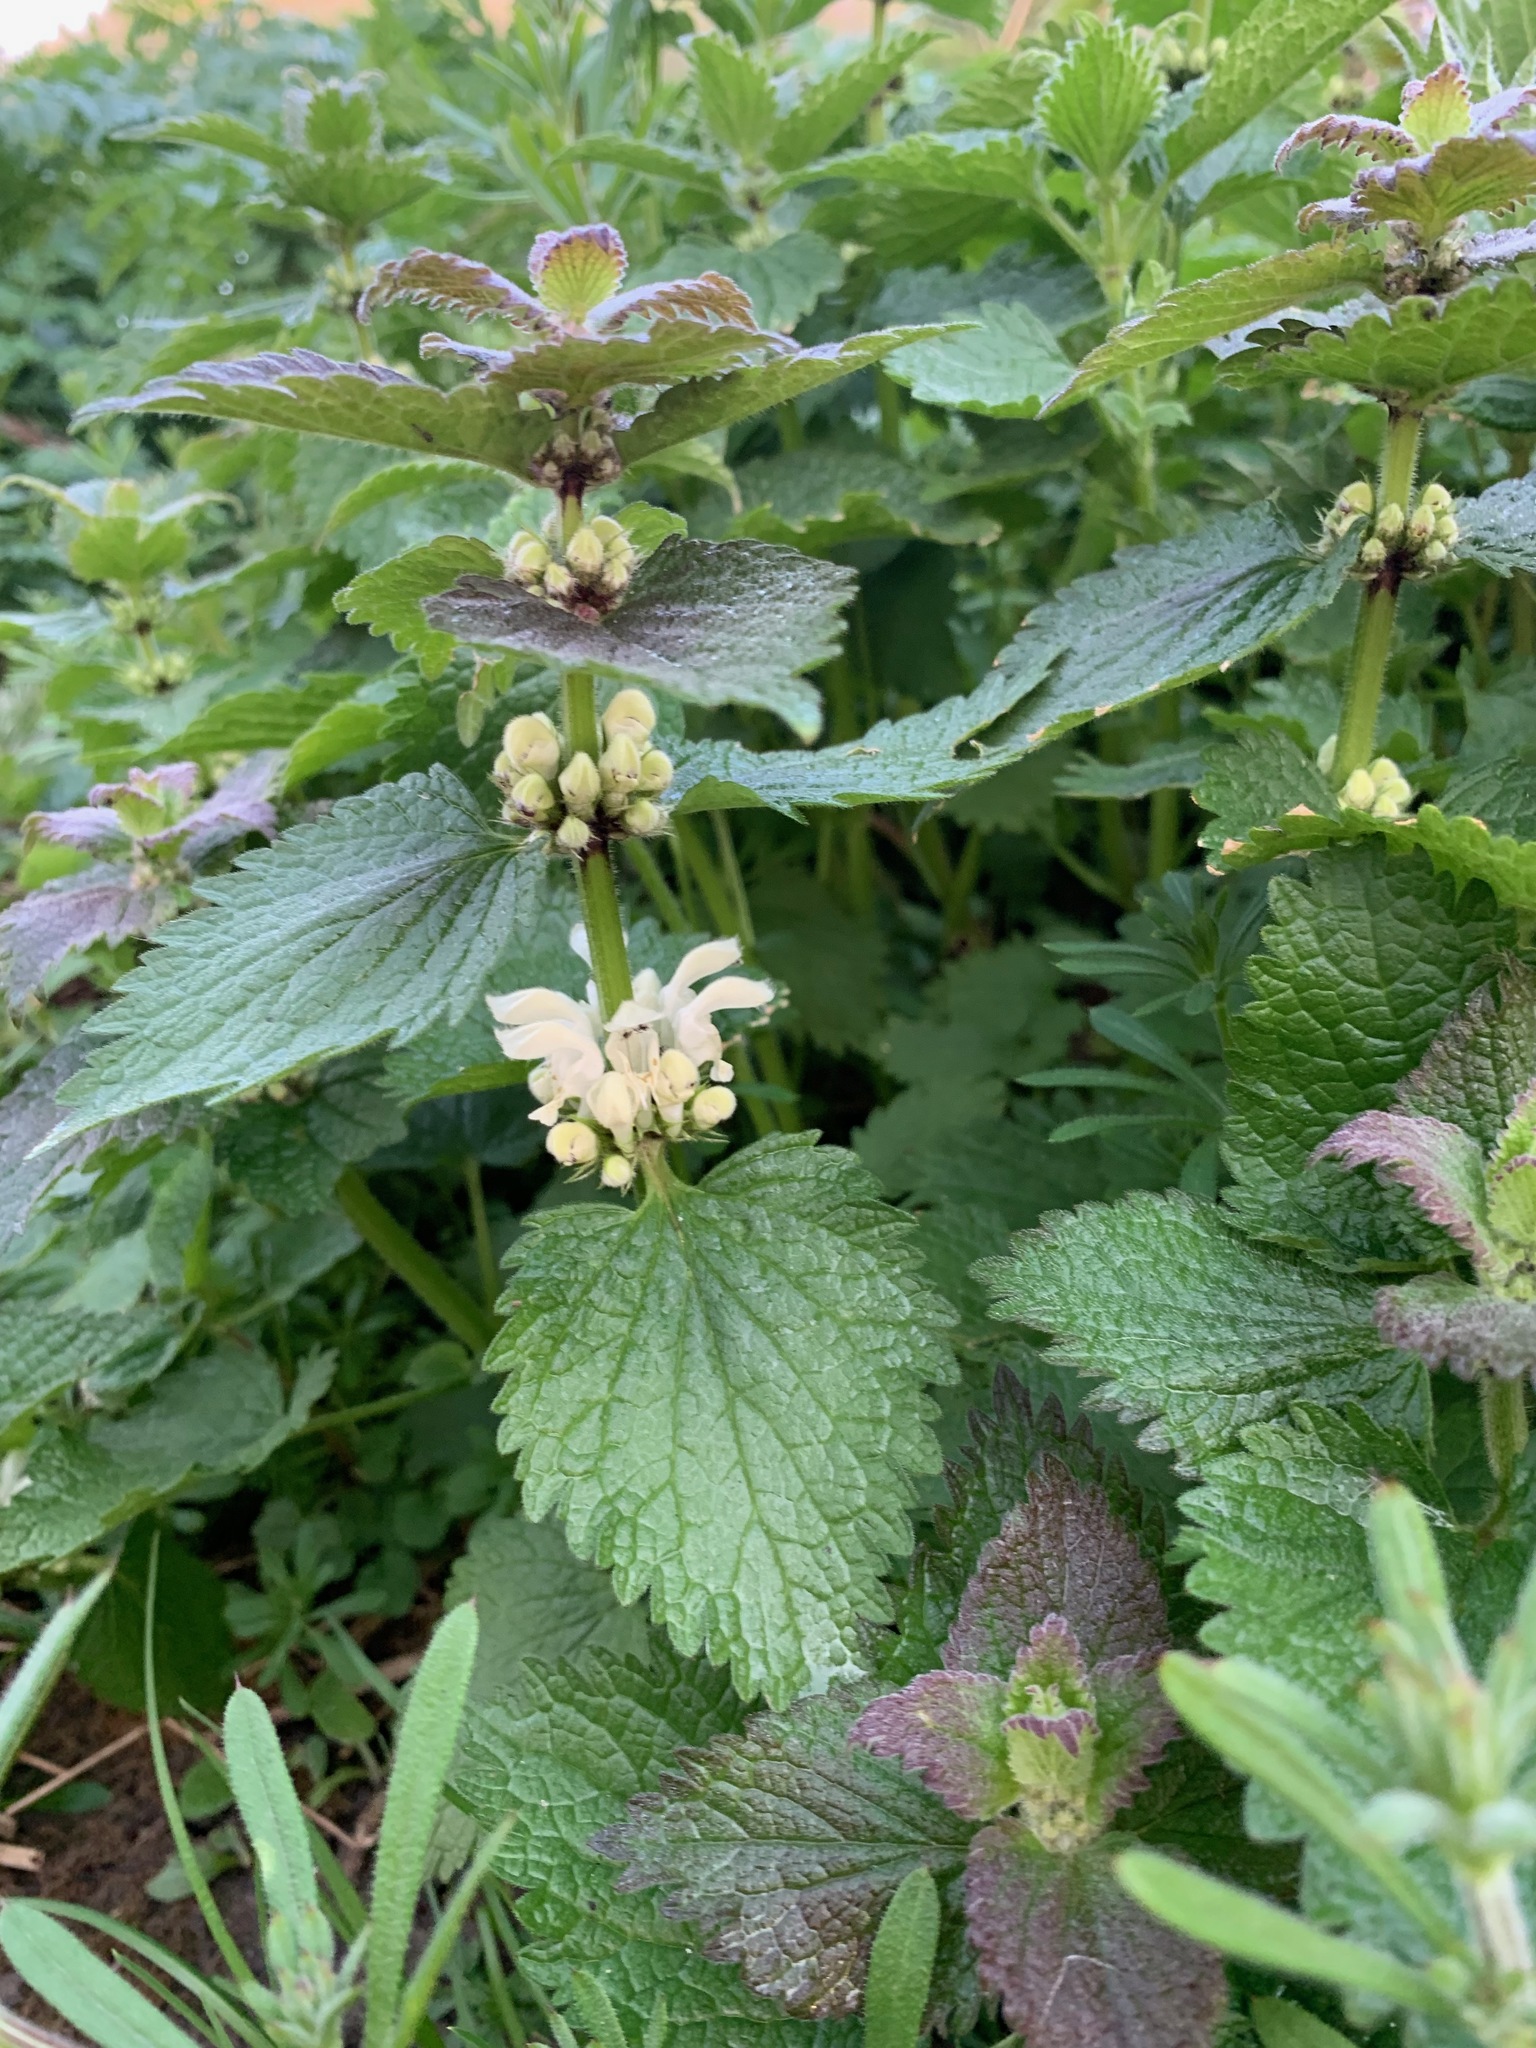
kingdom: Plantae
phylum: Tracheophyta
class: Magnoliopsida
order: Lamiales
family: Lamiaceae
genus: Lamium
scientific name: Lamium album
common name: White dead-nettle
